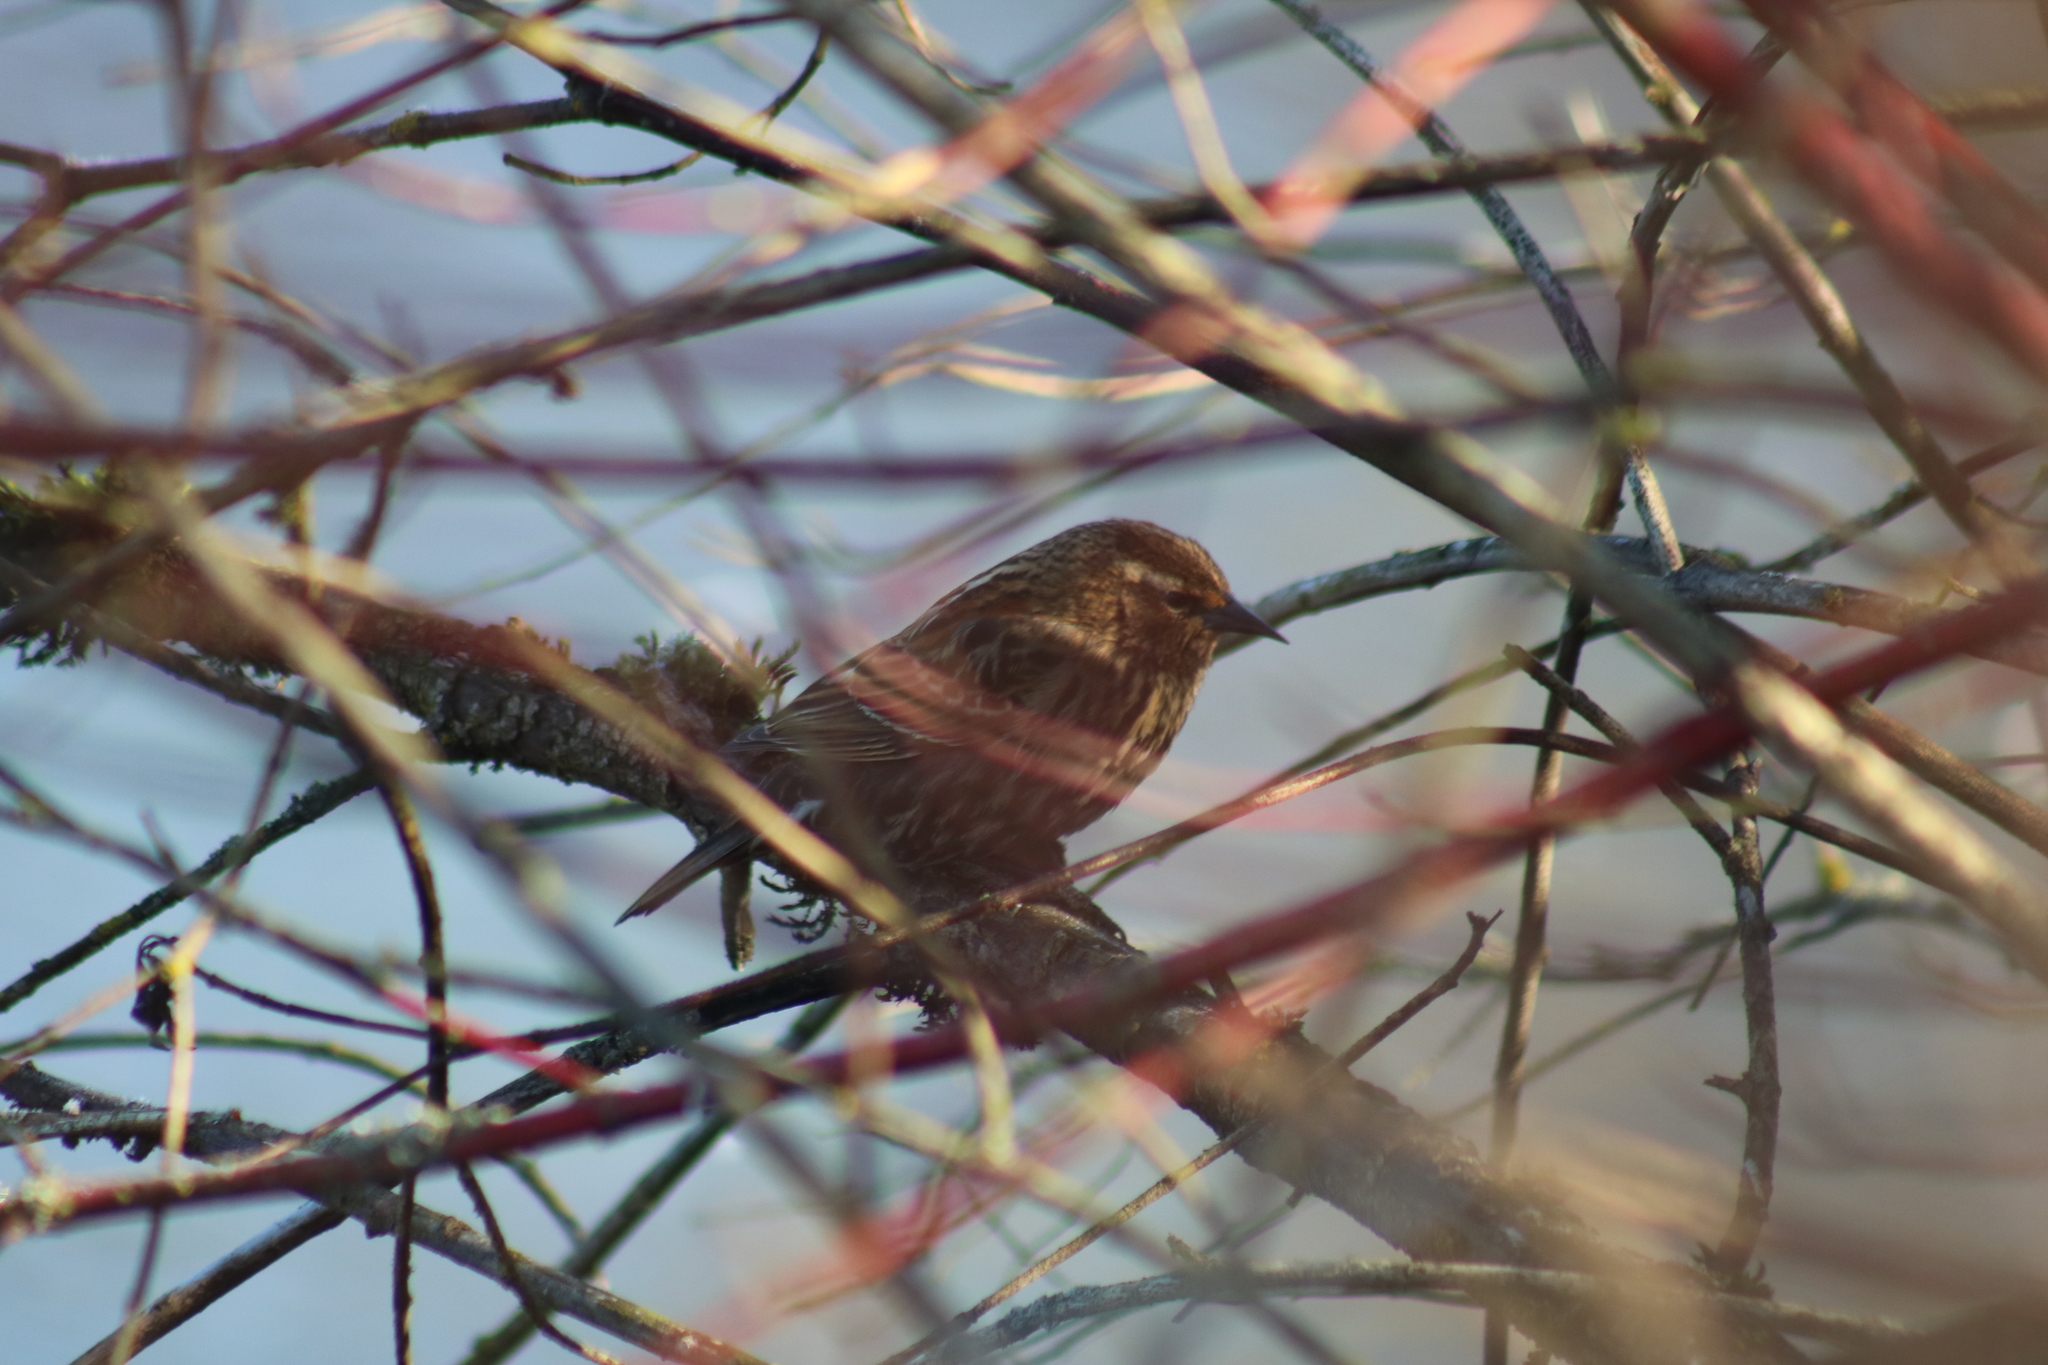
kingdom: Animalia
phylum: Chordata
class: Aves
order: Passeriformes
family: Icteridae
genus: Agelaius
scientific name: Agelaius phoeniceus
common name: Red-winged blackbird
